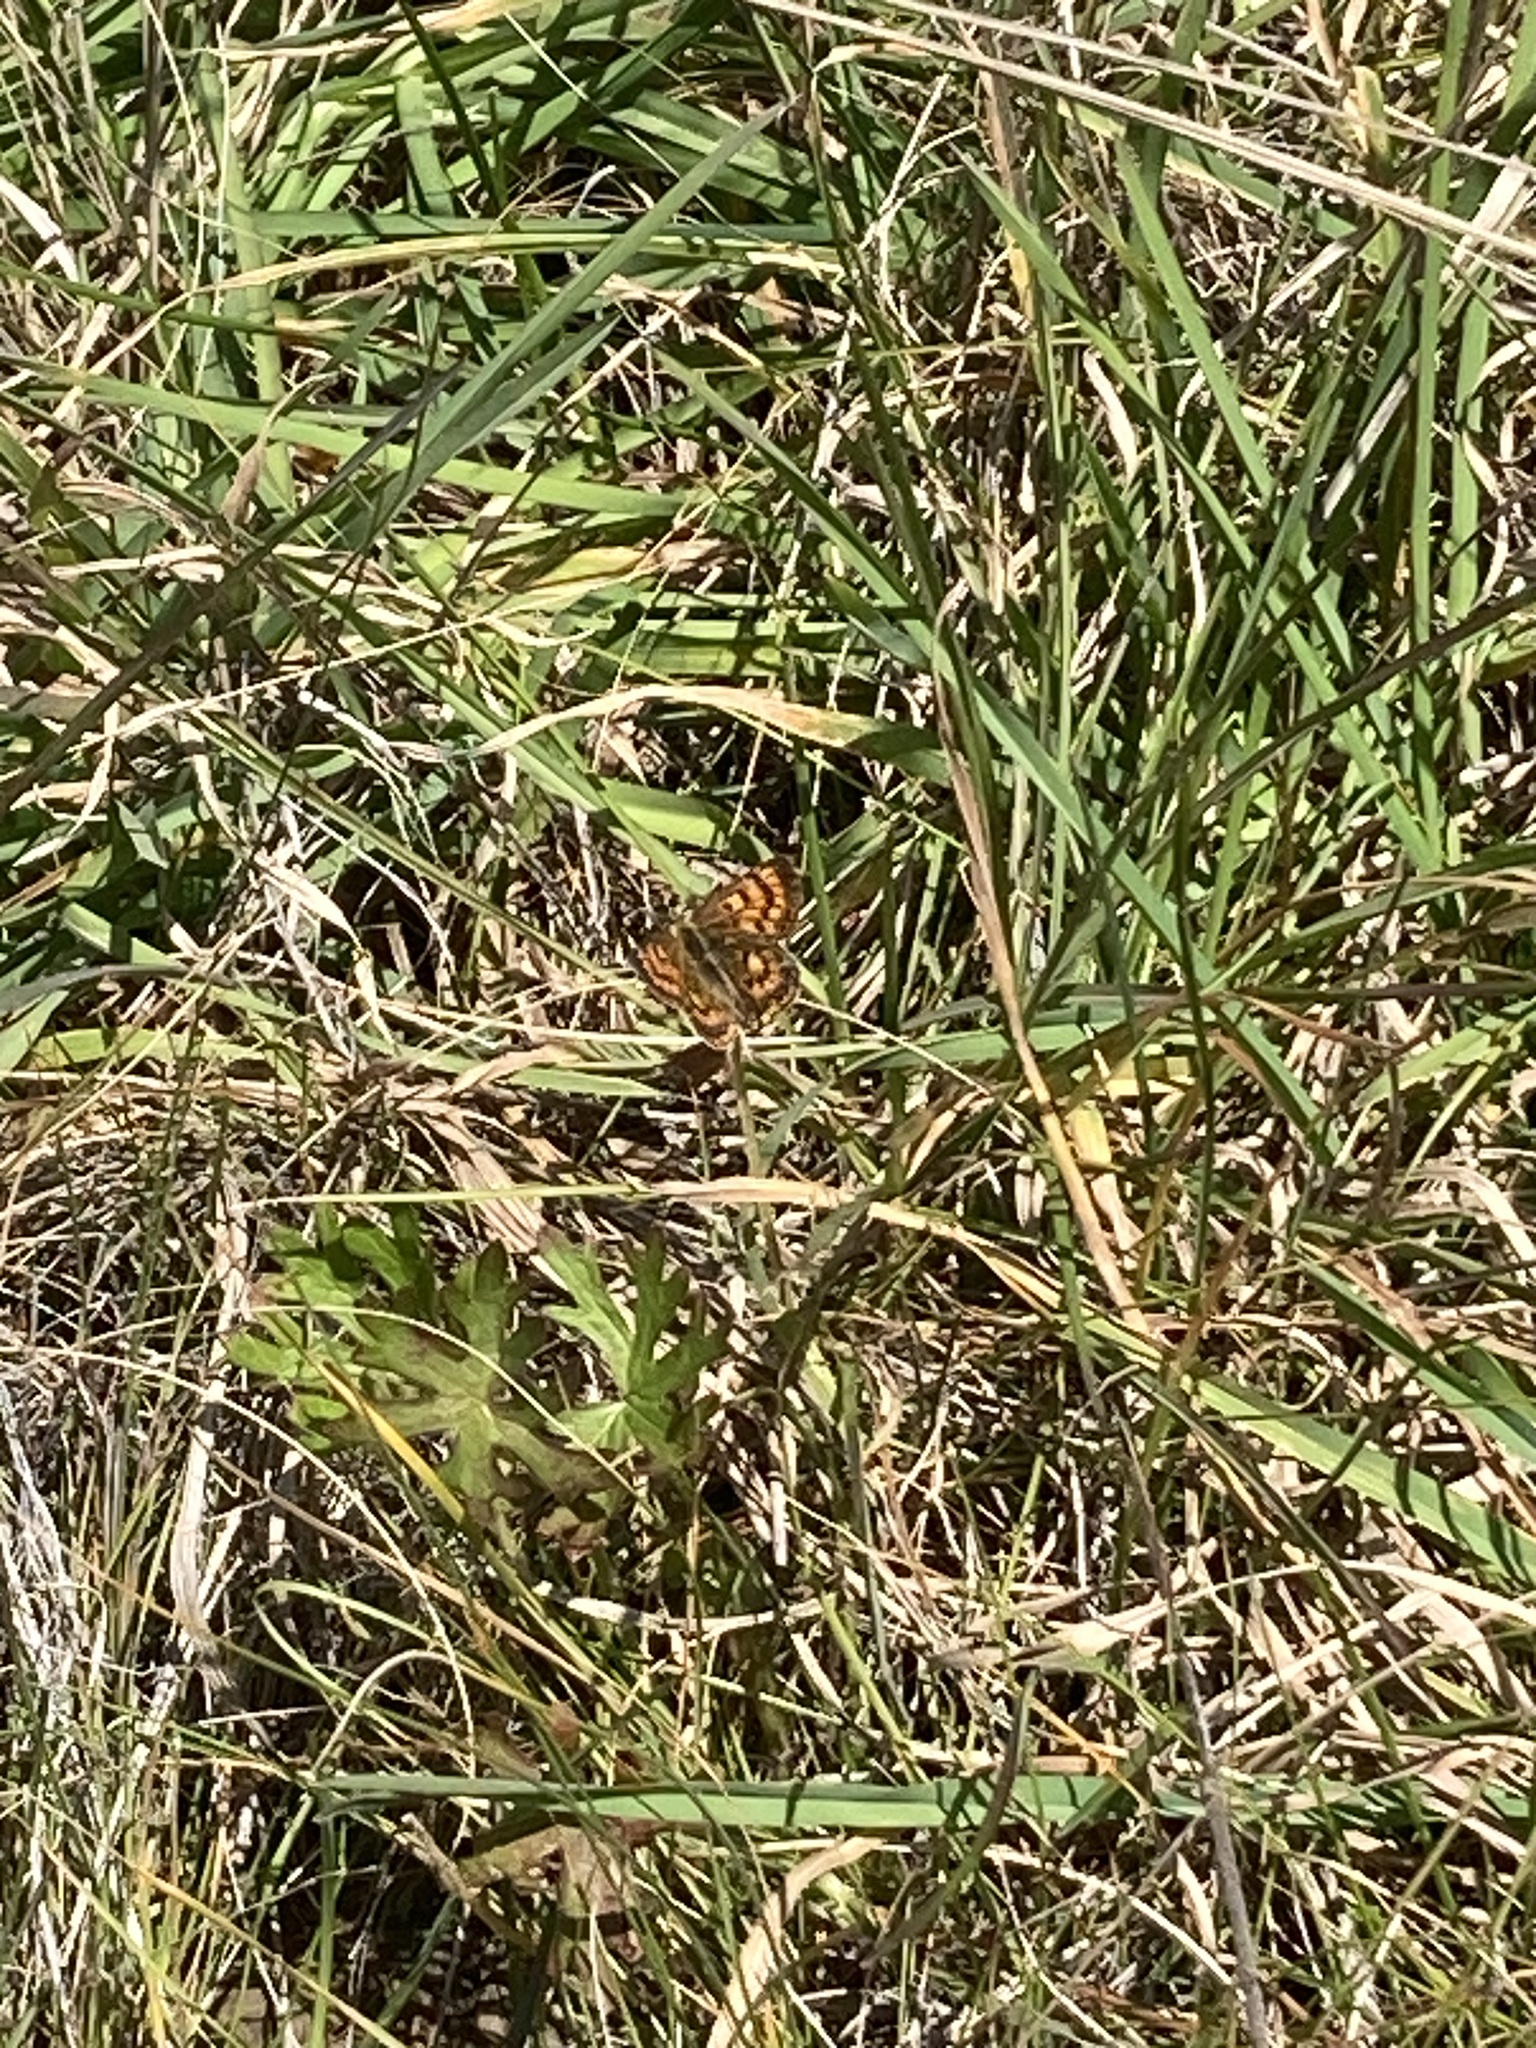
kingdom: Animalia
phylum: Arthropoda
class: Insecta
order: Lepidoptera
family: Lycaenidae
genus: Lycaena
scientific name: Lycaena
